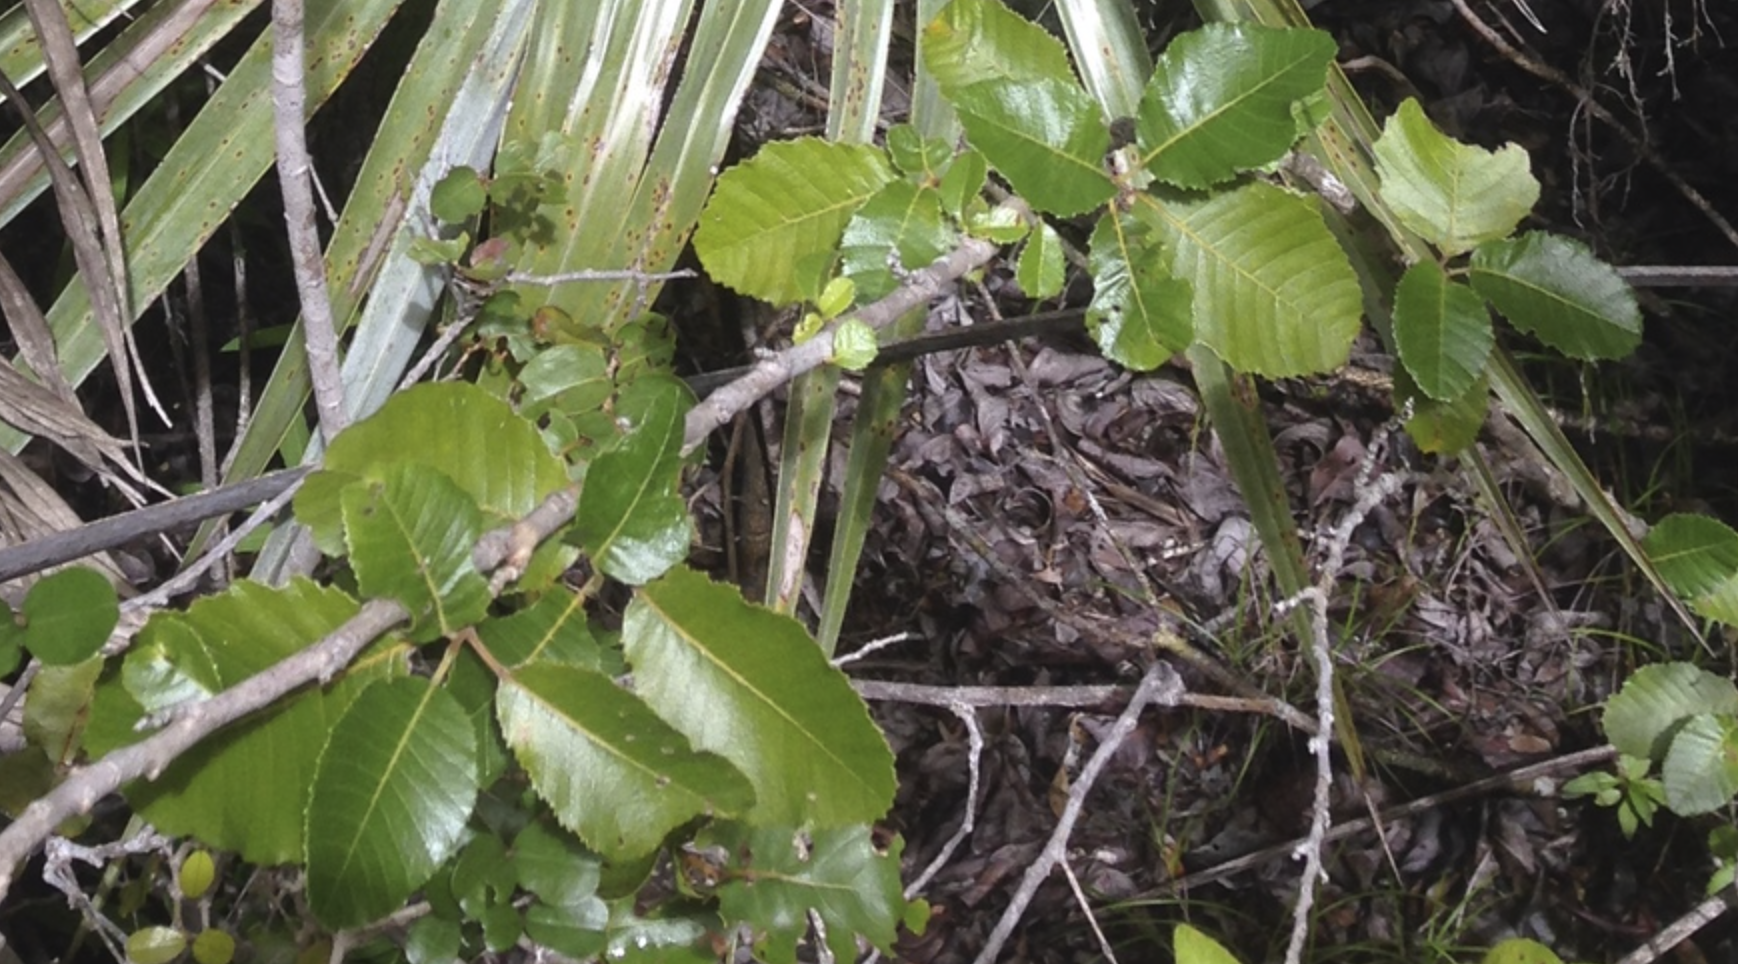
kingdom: Plantae
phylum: Tracheophyta
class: Magnoliopsida
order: Sapindales
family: Sapindaceae
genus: Thouinia
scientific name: Thouinia striata
